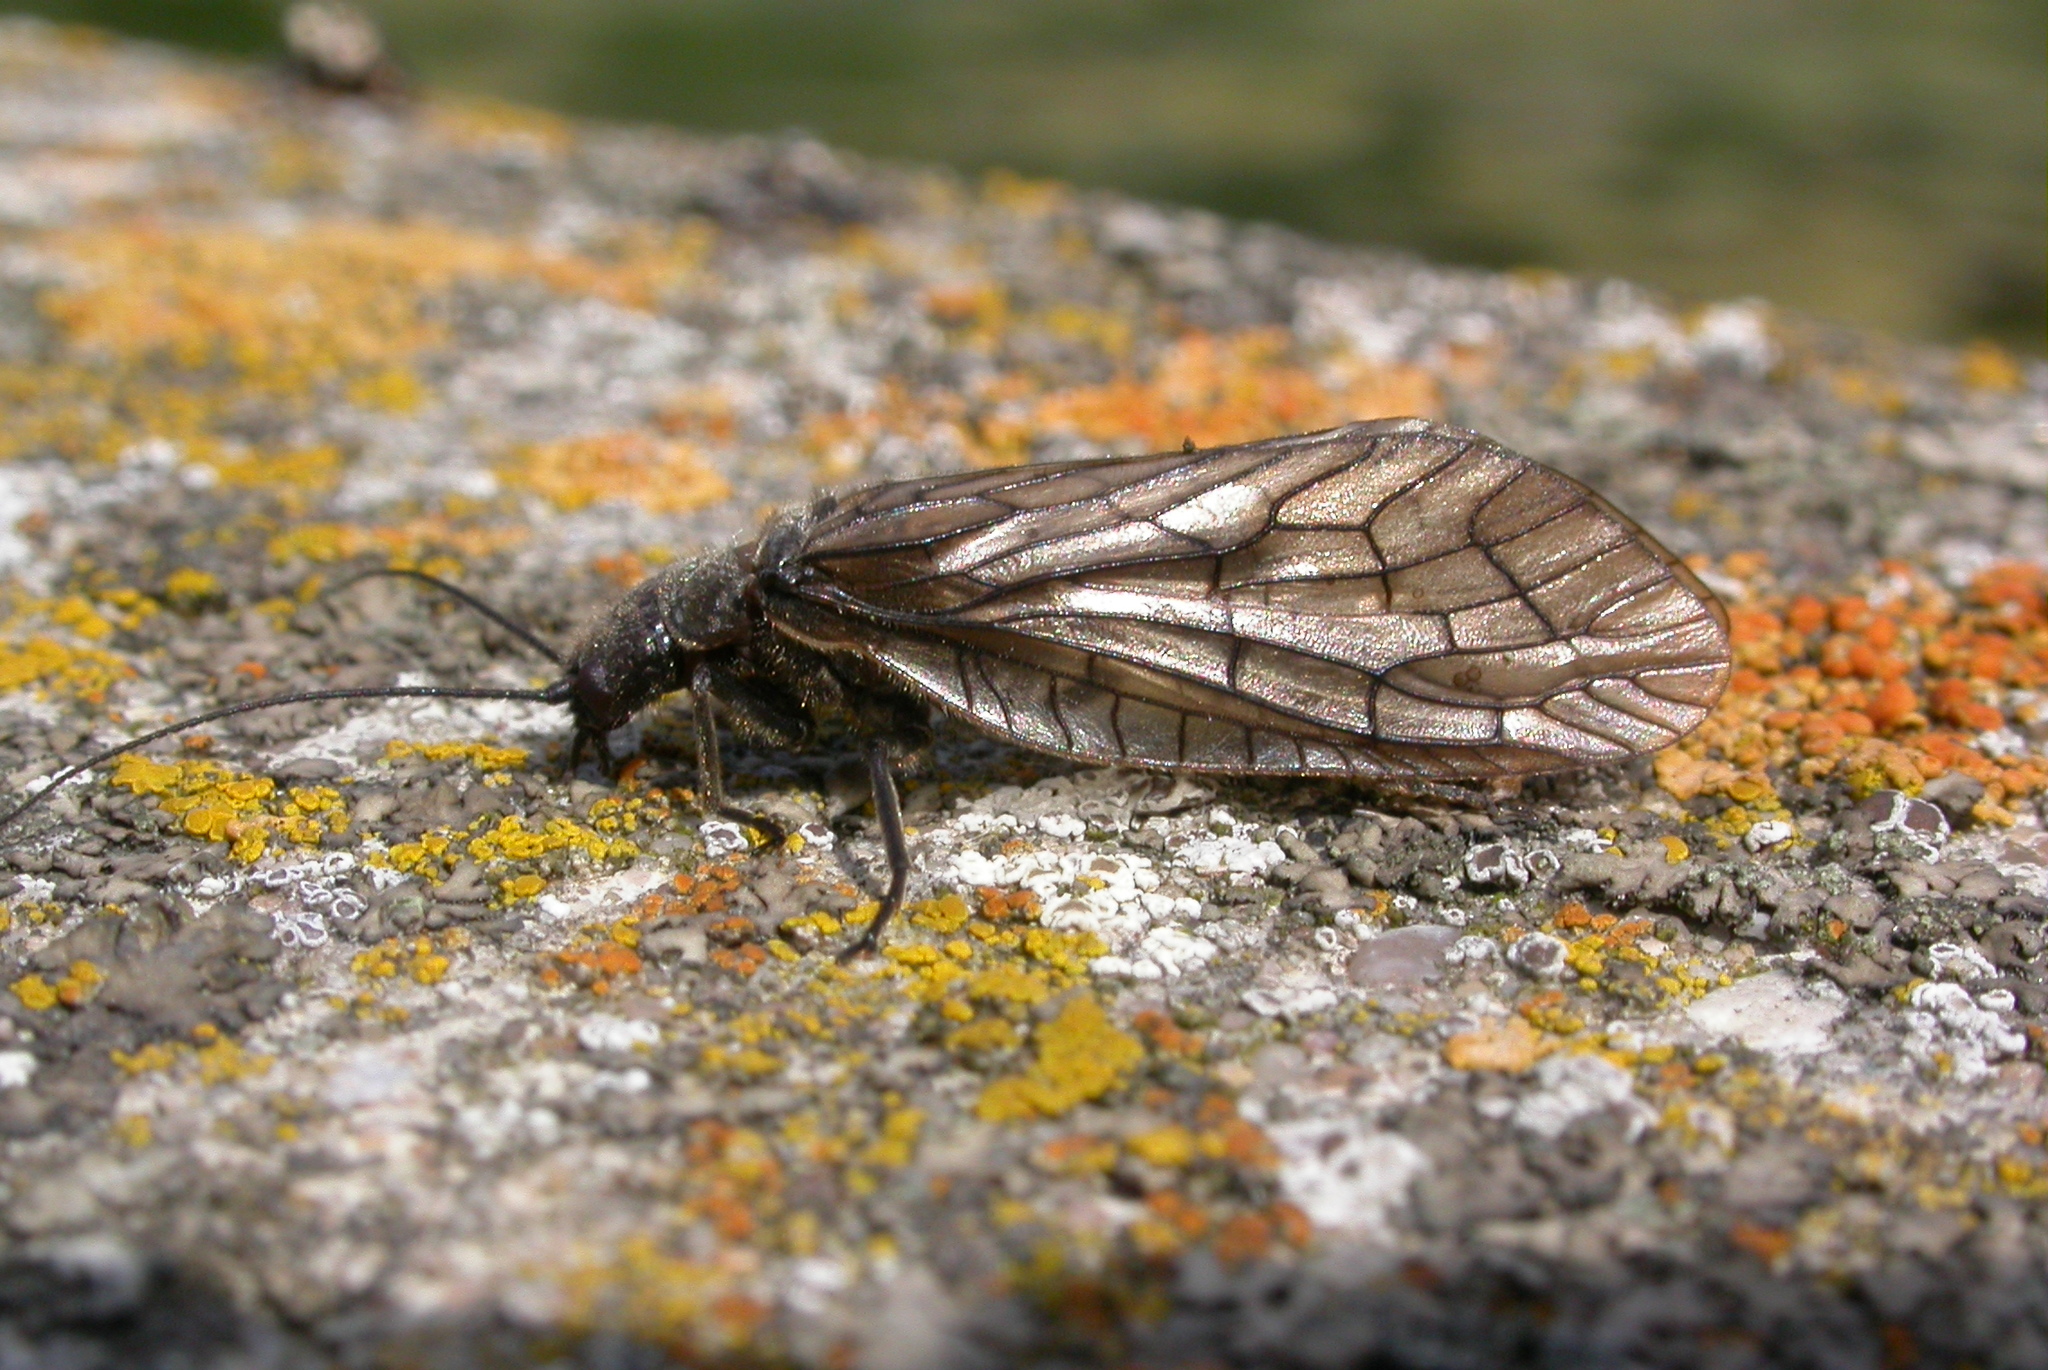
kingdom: Animalia
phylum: Arthropoda
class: Insecta
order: Megaloptera
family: Sialidae
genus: Sialis
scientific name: Sialis
